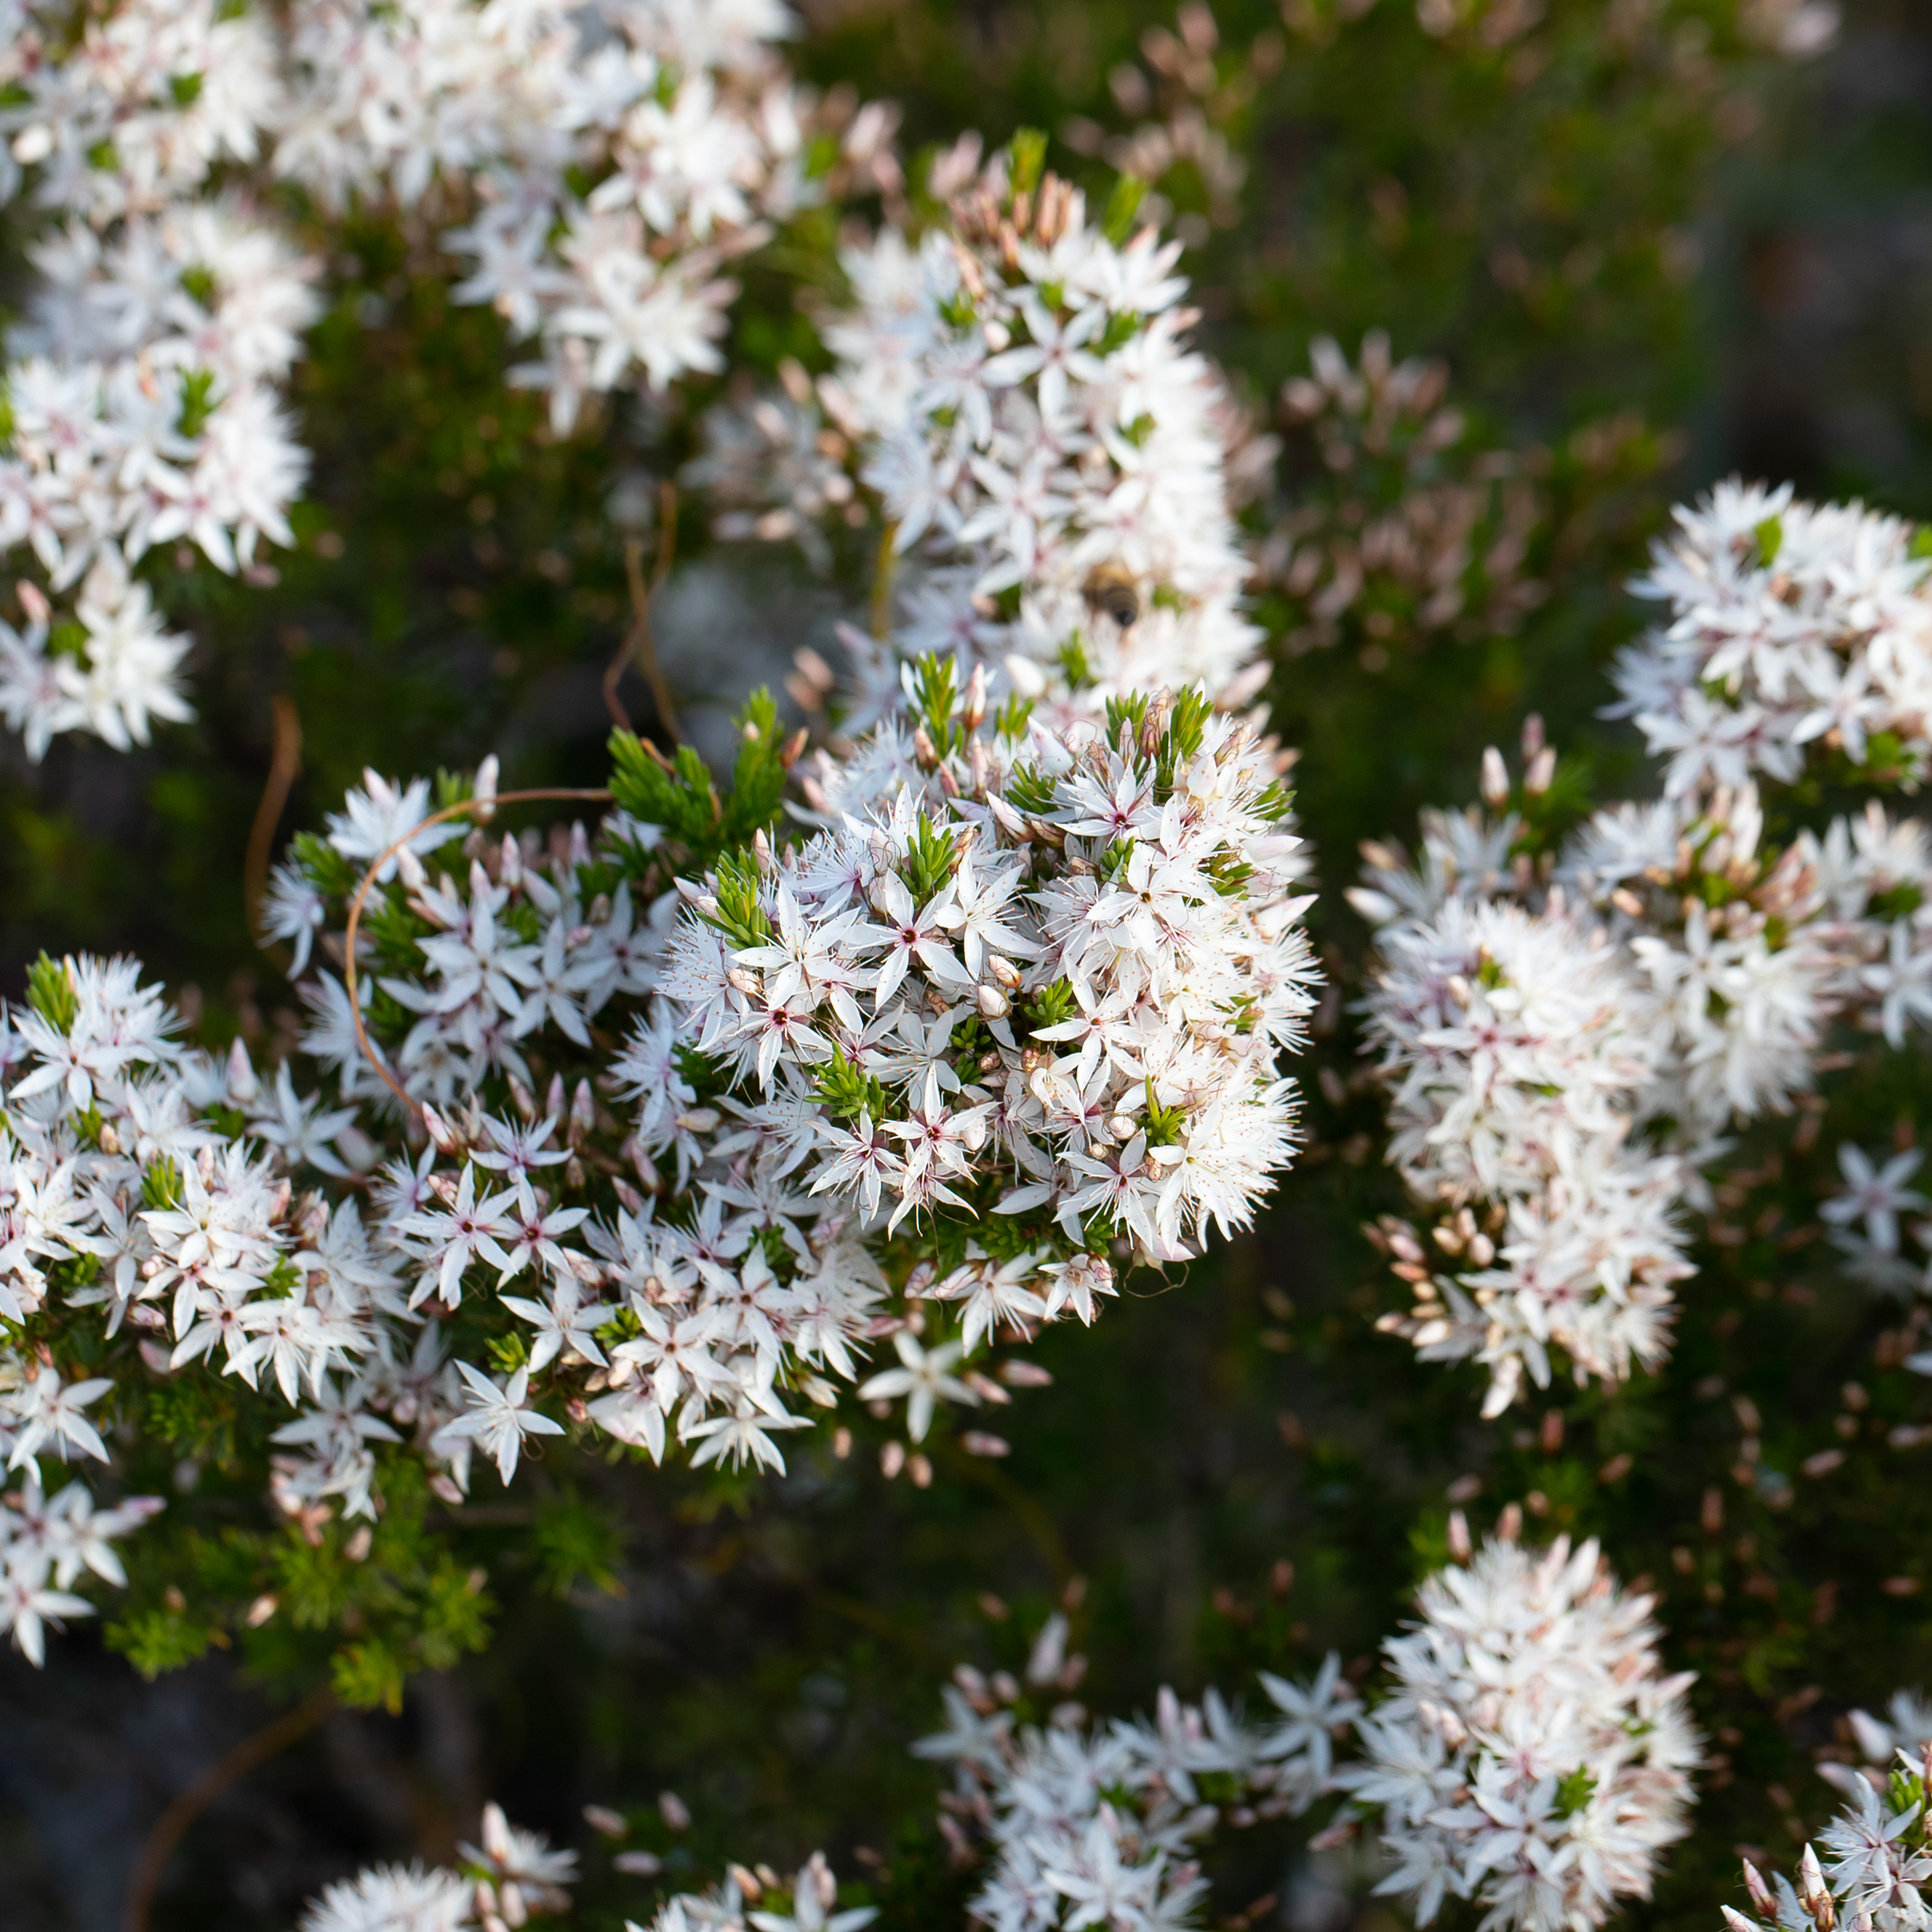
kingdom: Plantae
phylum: Tracheophyta
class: Magnoliopsida
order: Myrtales
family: Myrtaceae
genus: Calytrix
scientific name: Calytrix tetragona
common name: Common fringe myrtle
